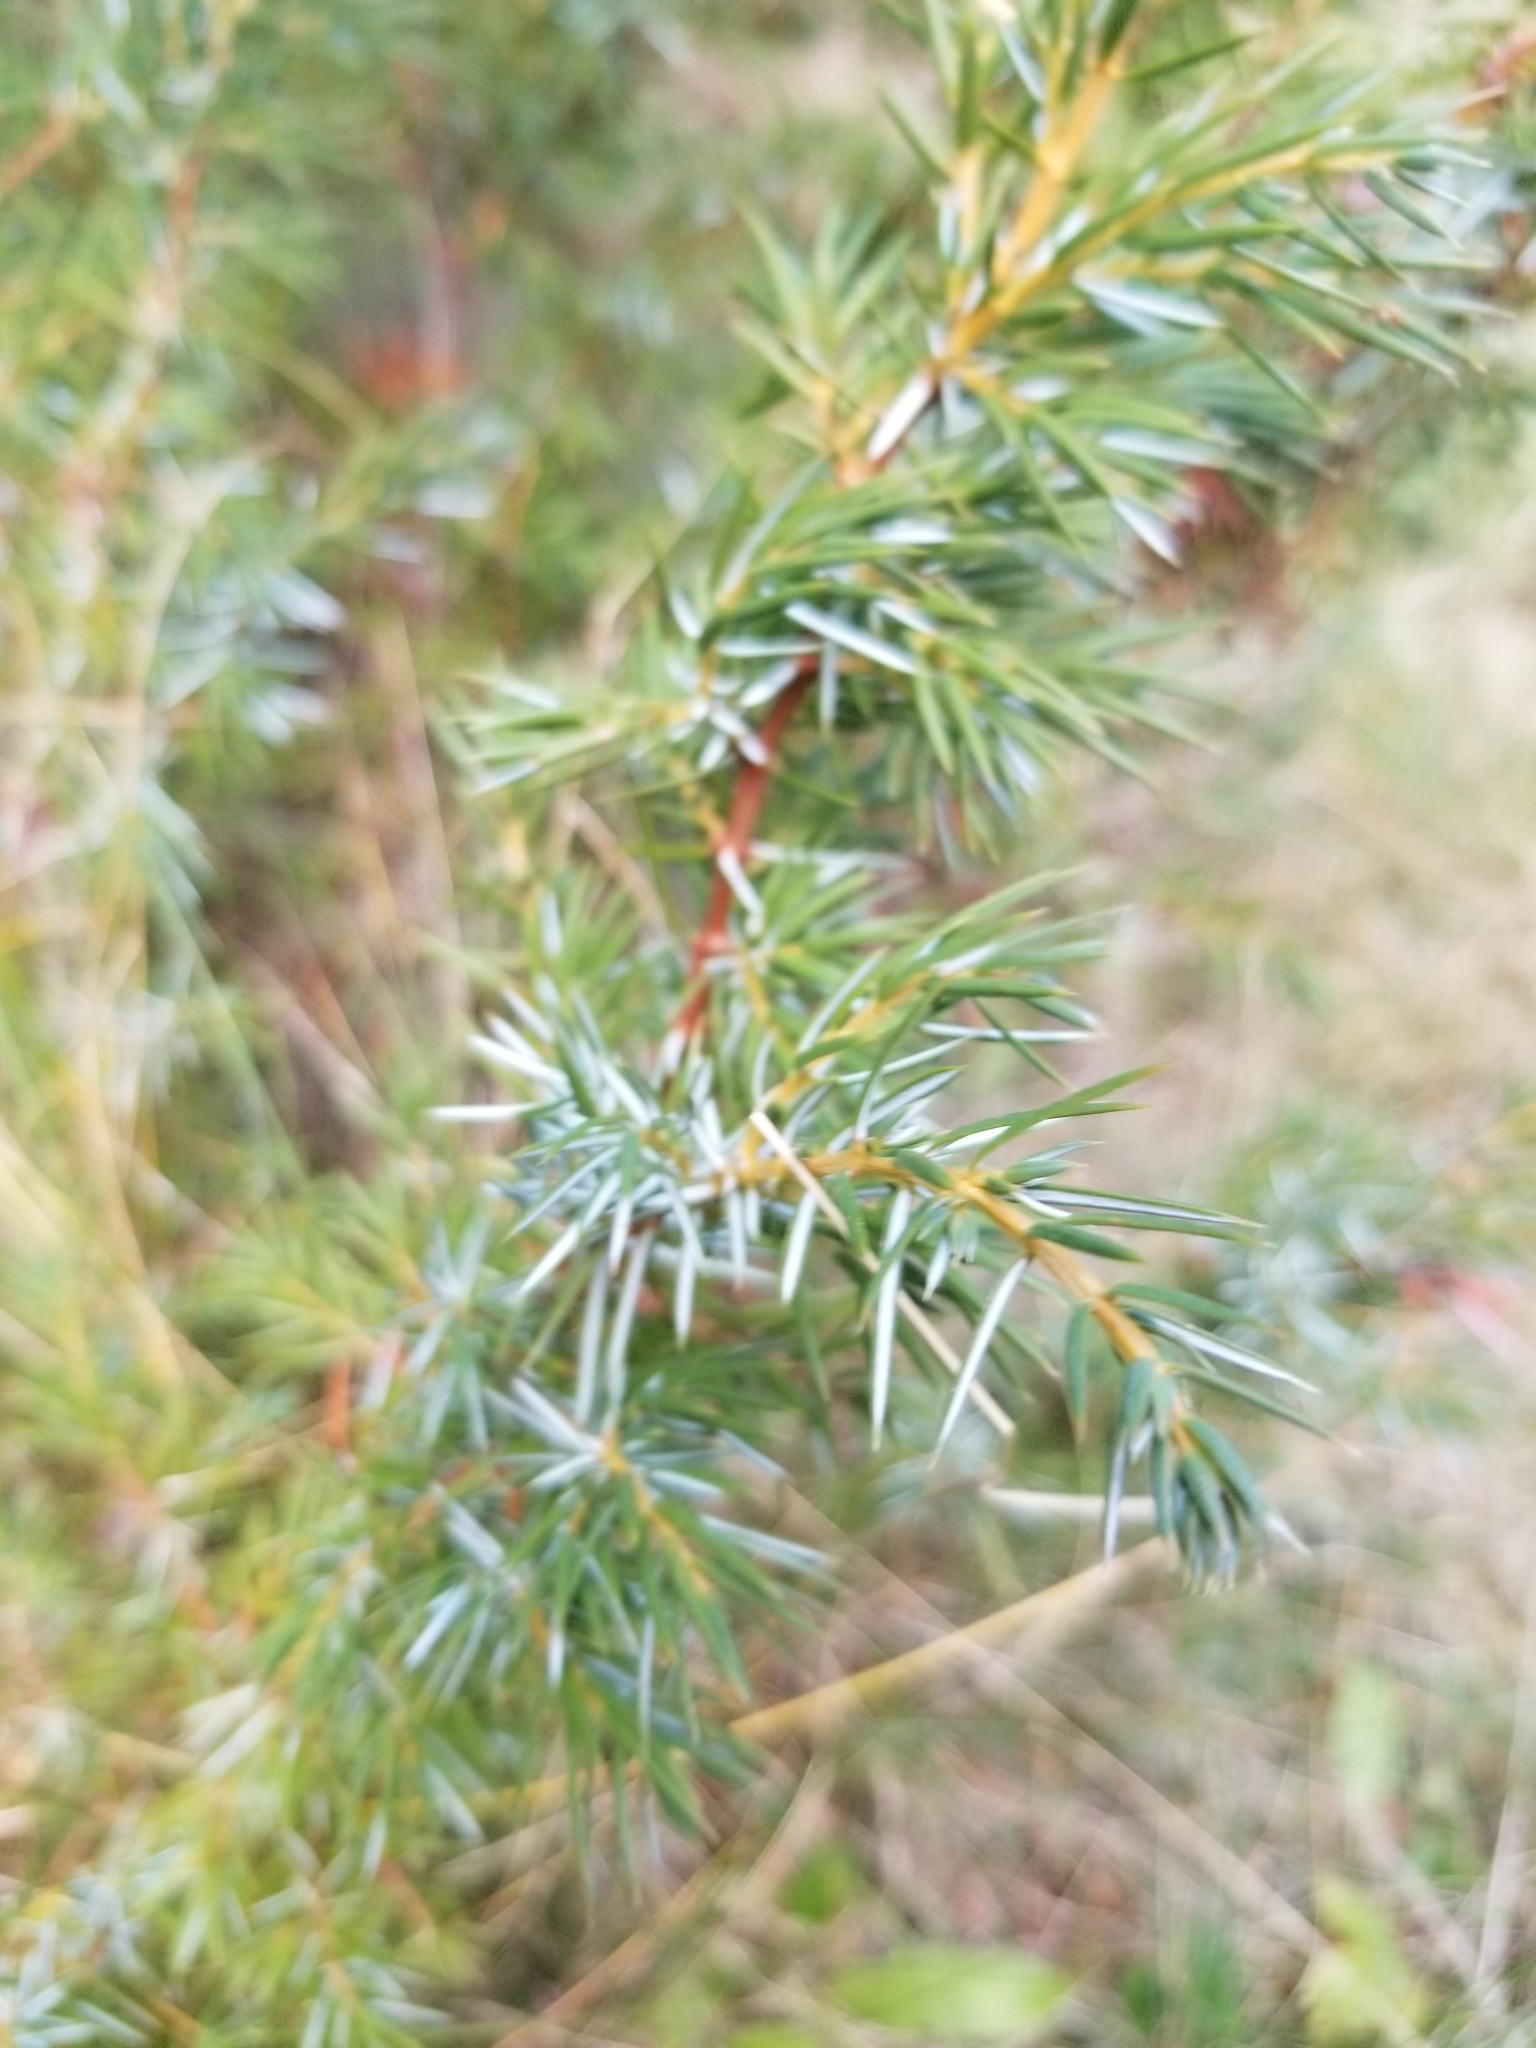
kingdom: Plantae
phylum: Tracheophyta
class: Pinopsida
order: Pinales
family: Cupressaceae
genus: Juniperus
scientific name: Juniperus communis
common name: Common juniper
